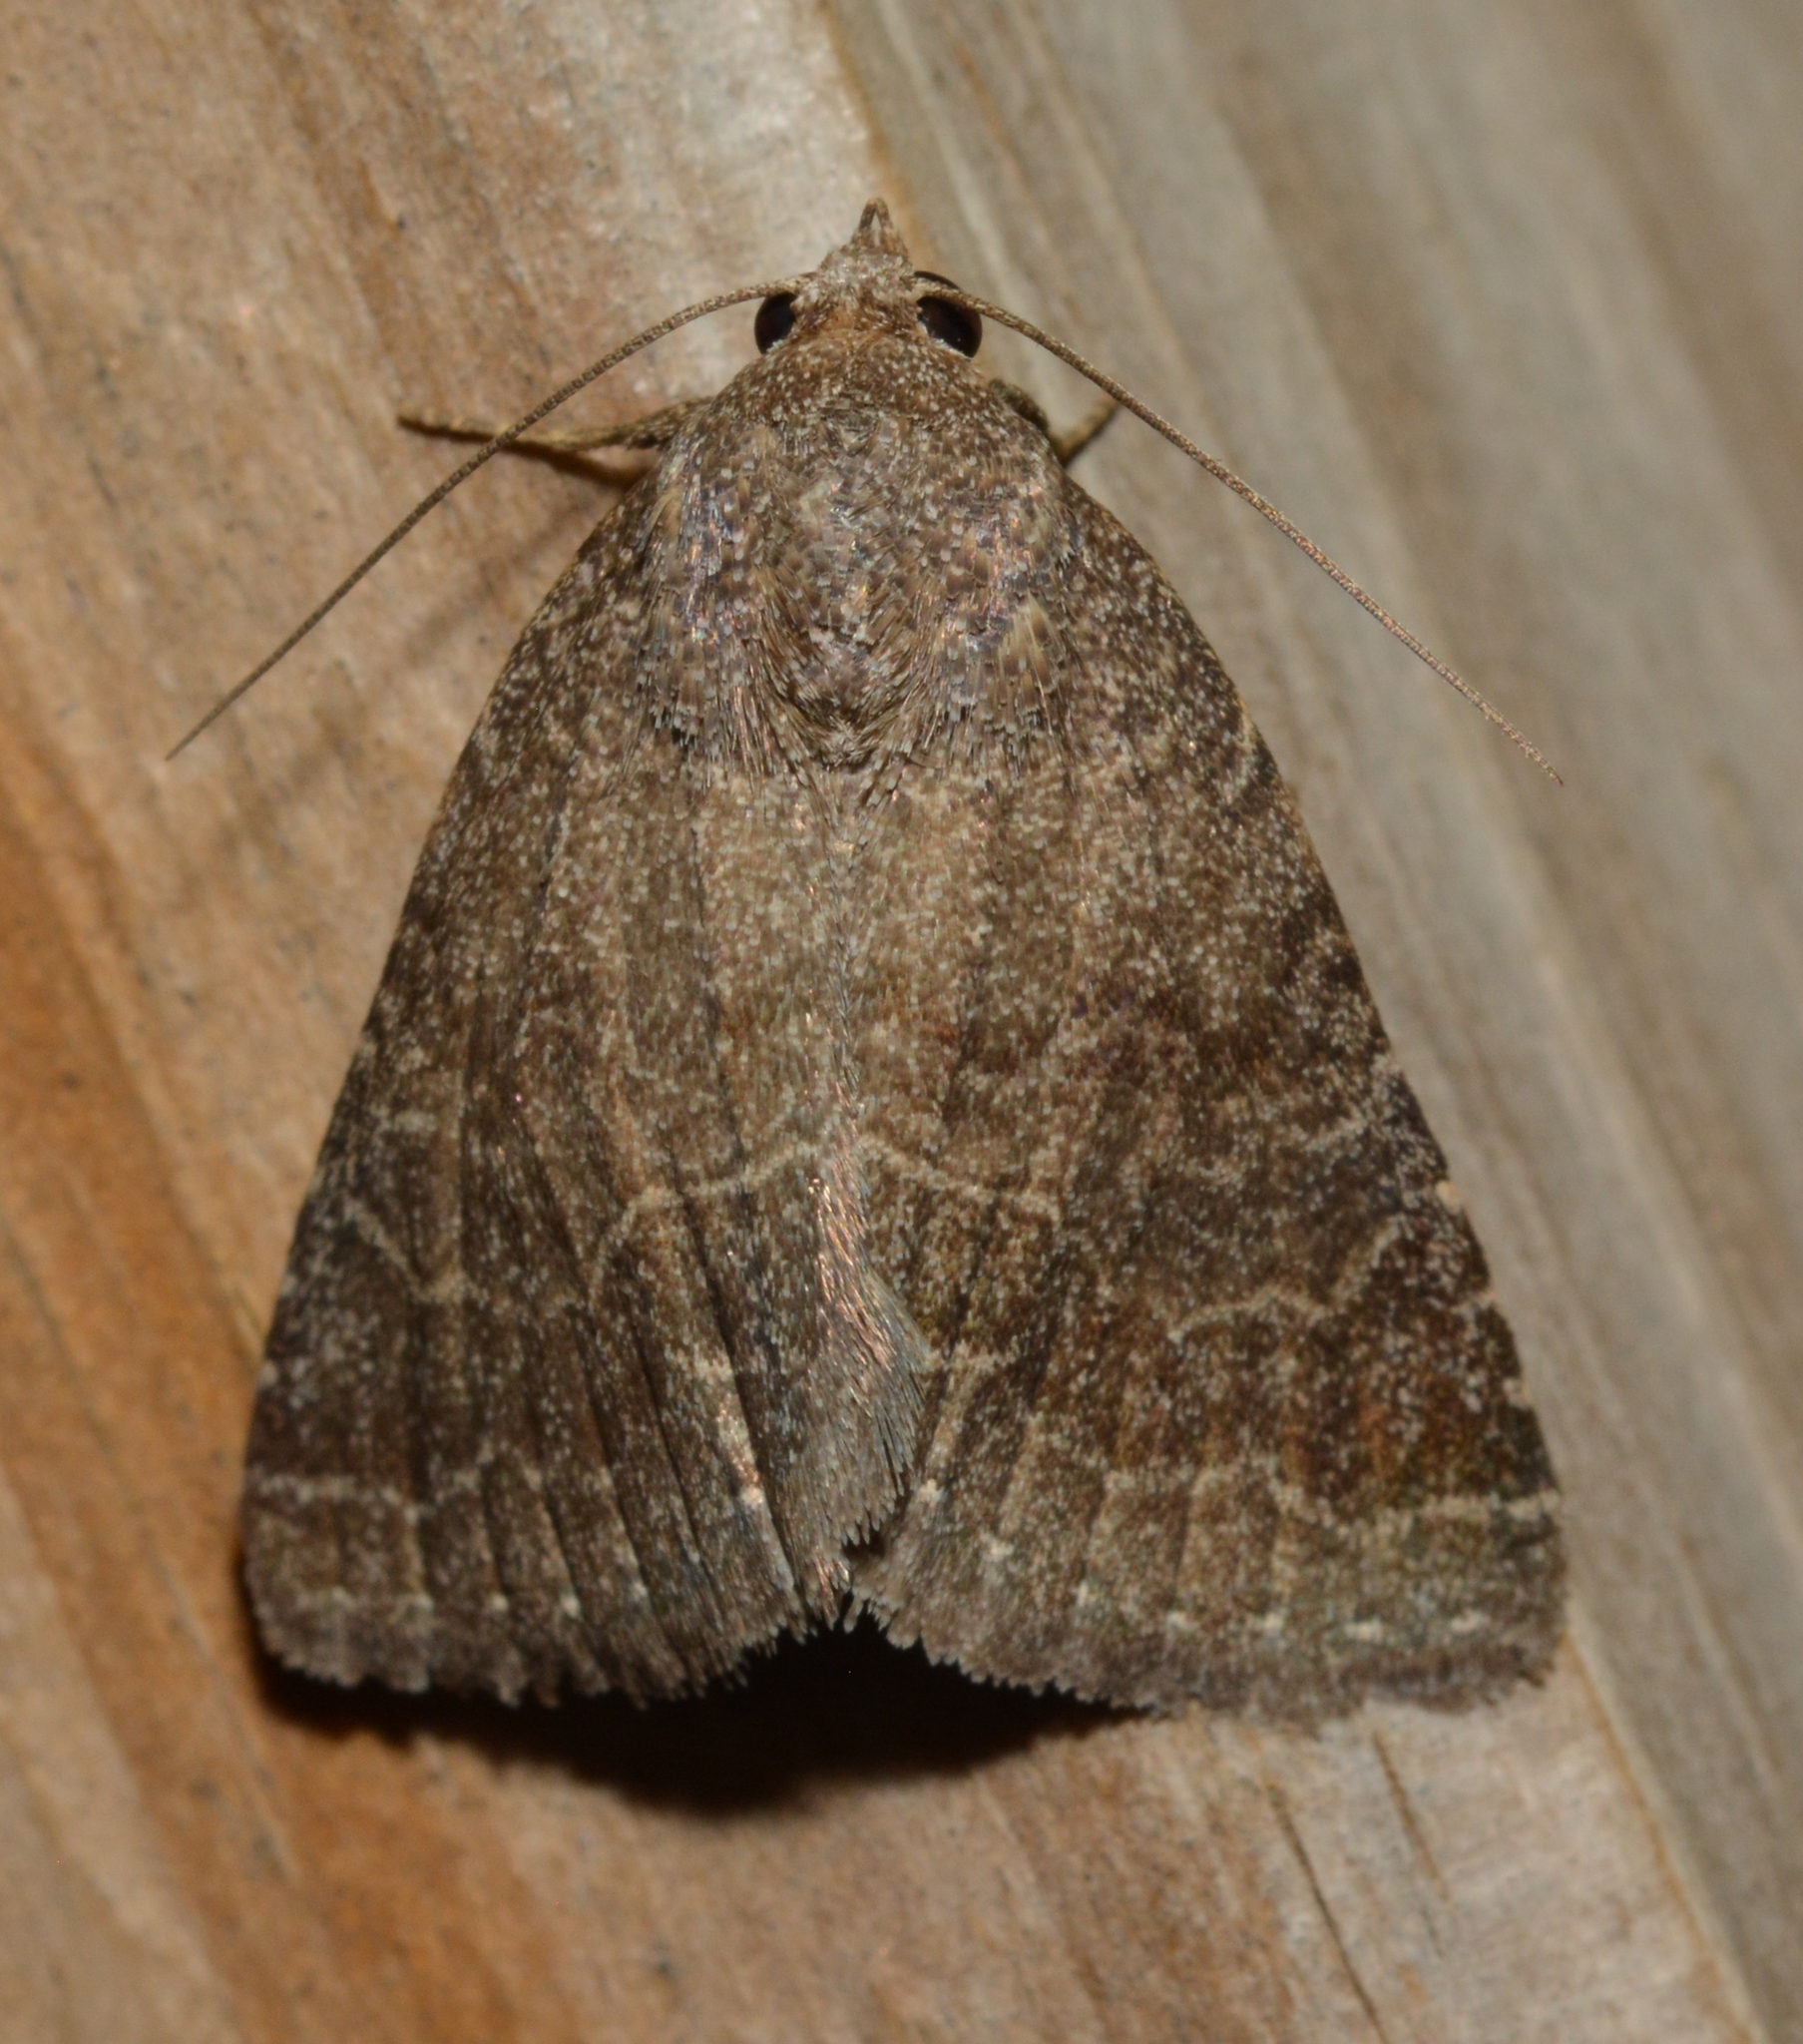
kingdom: Animalia
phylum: Arthropoda
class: Insecta
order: Lepidoptera
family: Erebidae
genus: Matigramma
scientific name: Matigramma pulverilinea
